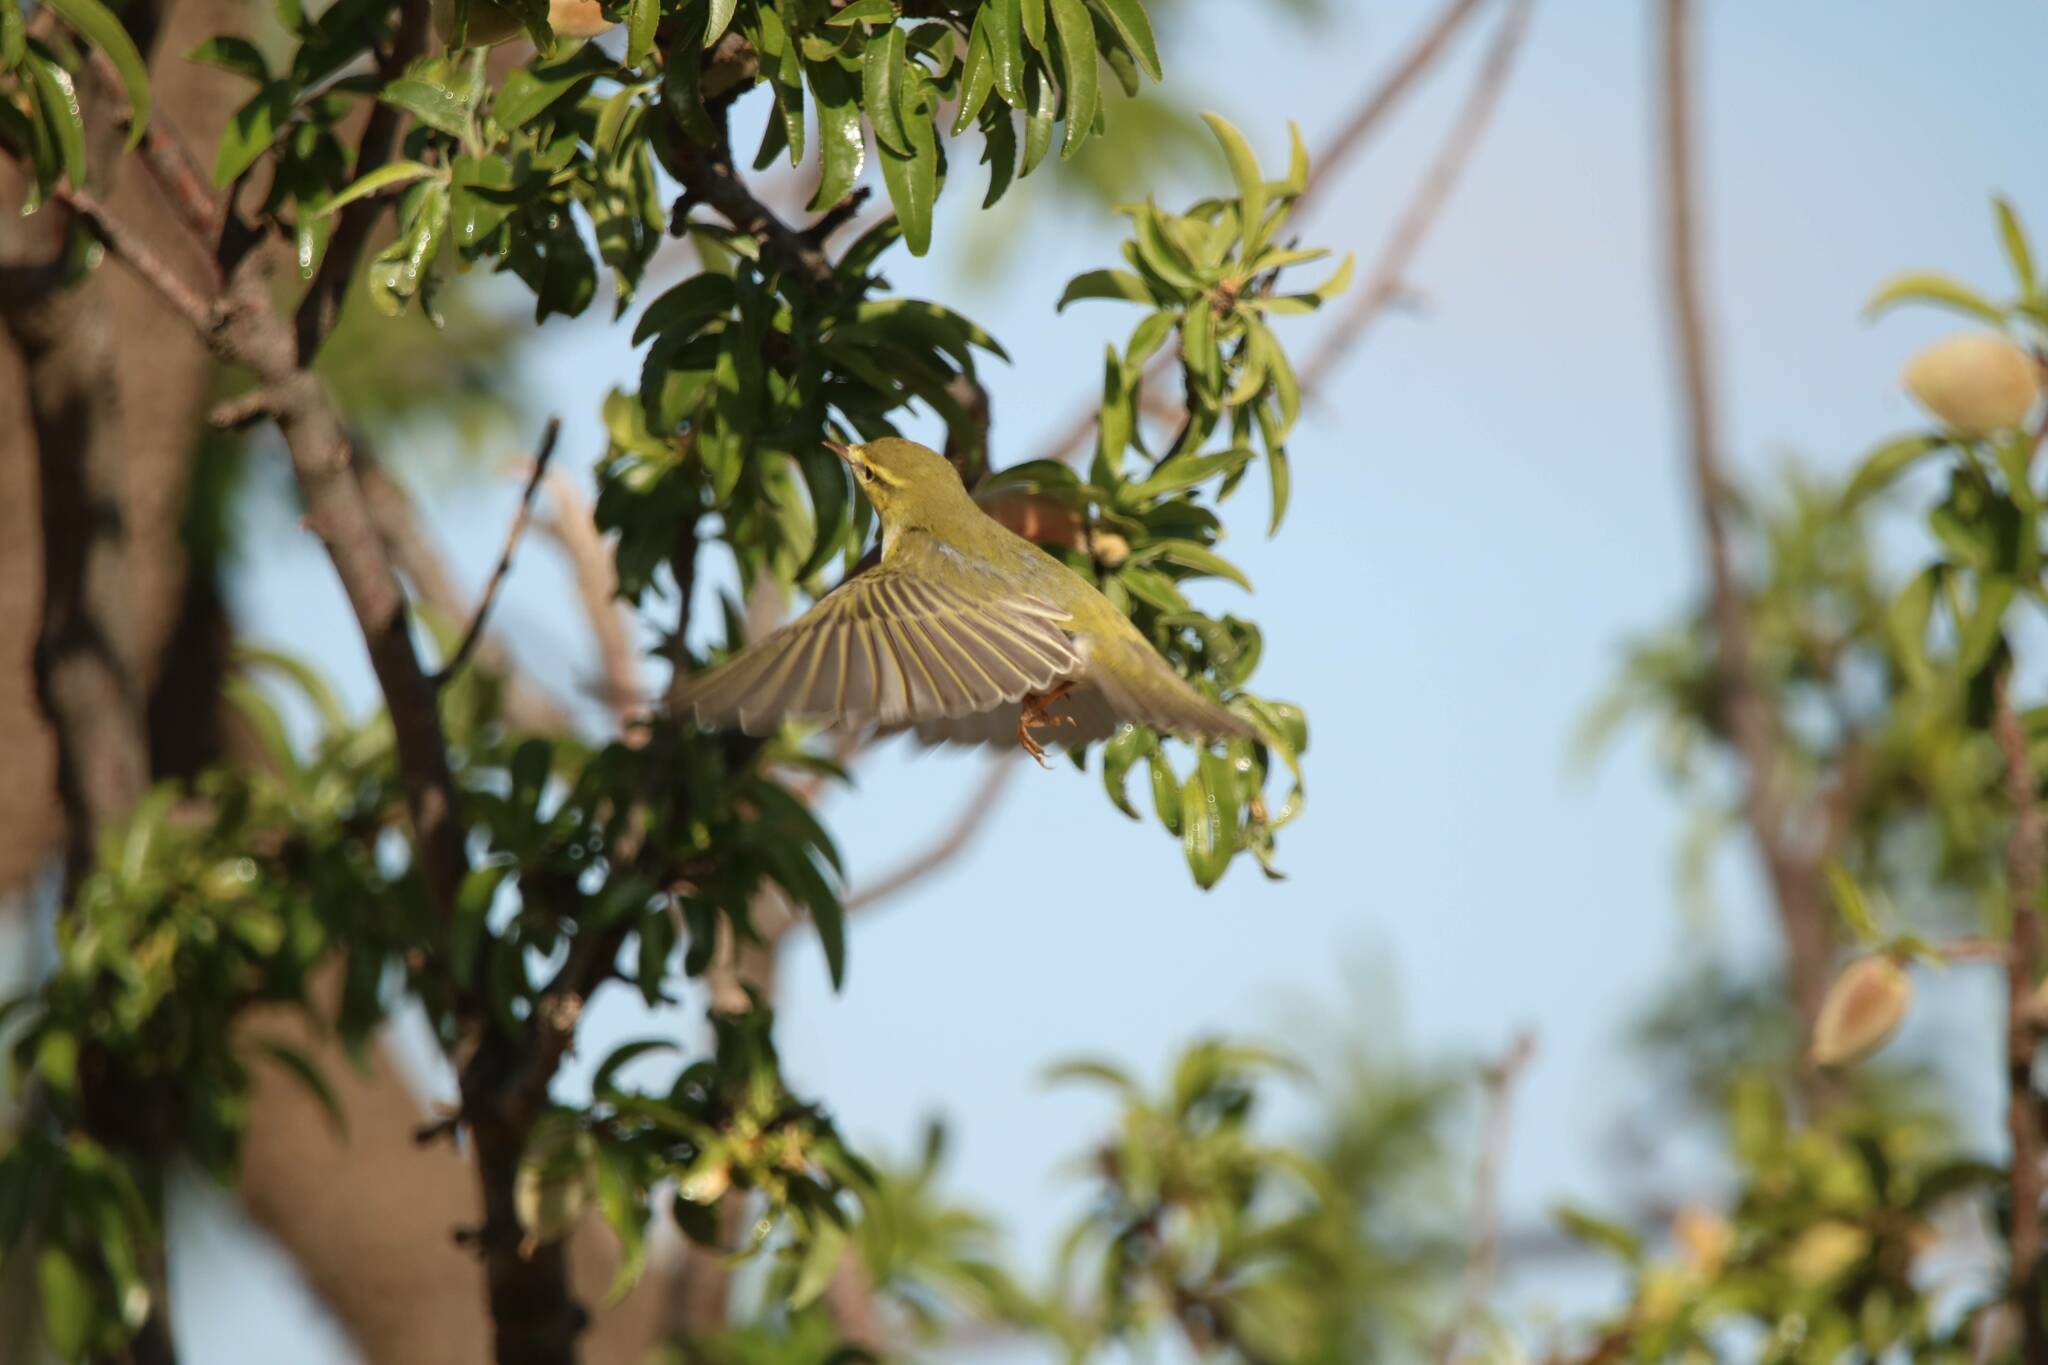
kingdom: Animalia
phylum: Chordata
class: Aves
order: Passeriformes
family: Phylloscopidae
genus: Phylloscopus
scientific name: Phylloscopus sibillatrix
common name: Wood warbler
